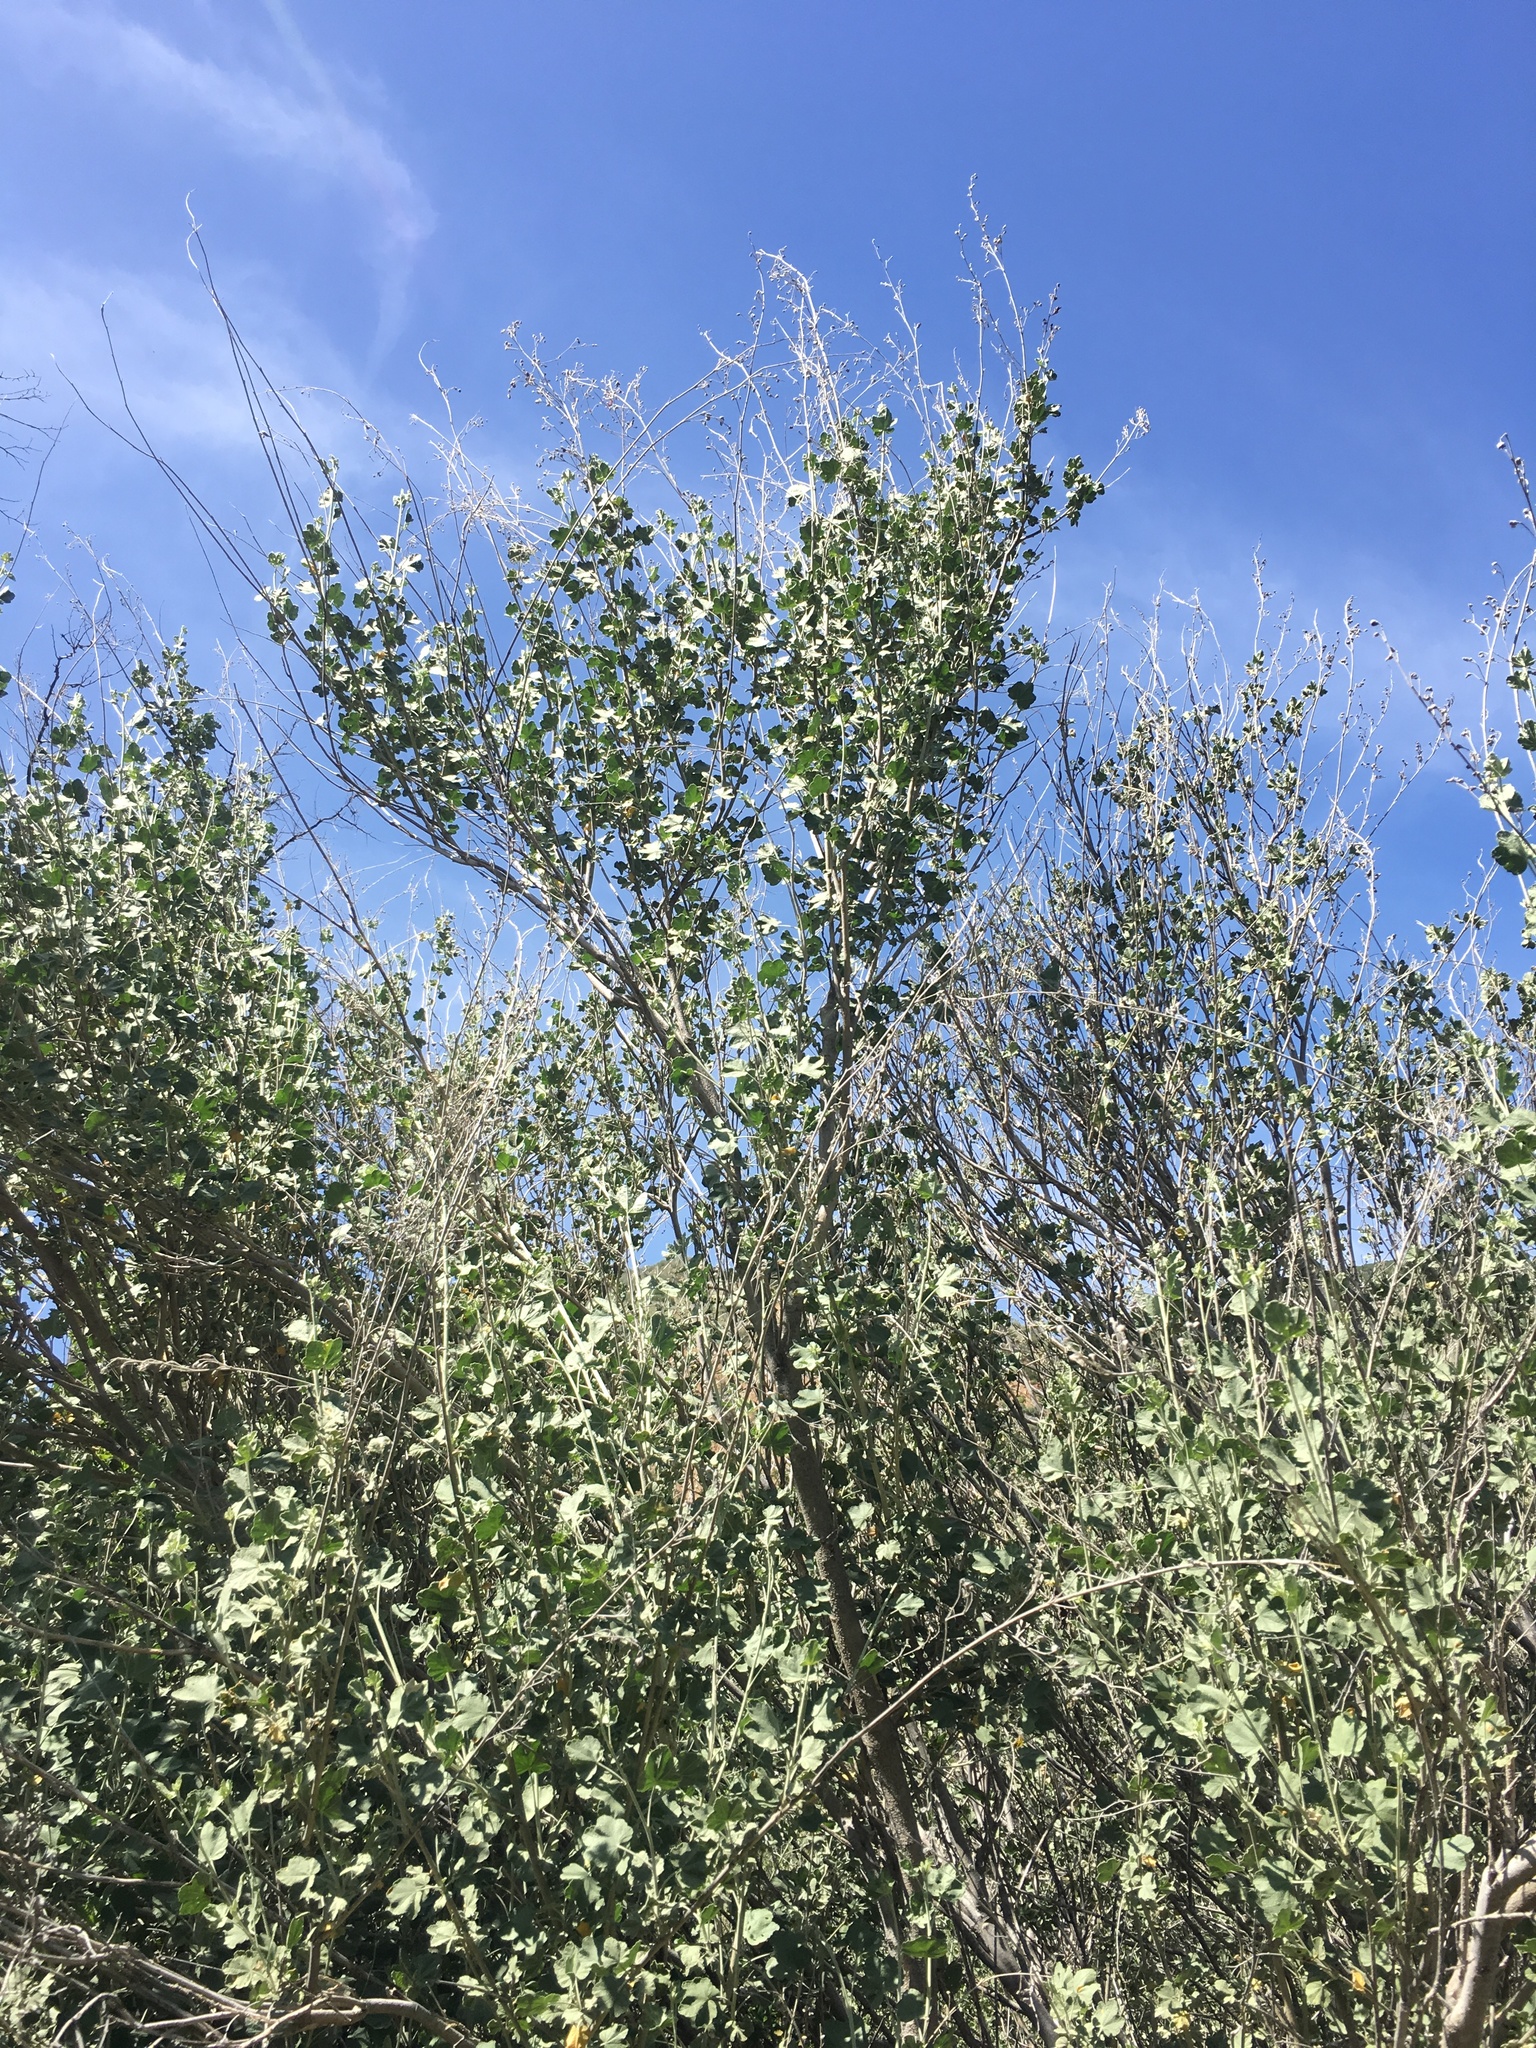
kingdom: Plantae
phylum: Tracheophyta
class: Magnoliopsida
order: Malvales
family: Malvaceae
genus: Malacothamnus
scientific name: Malacothamnus fasciculatus
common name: Sant cruz island bush-mallow
